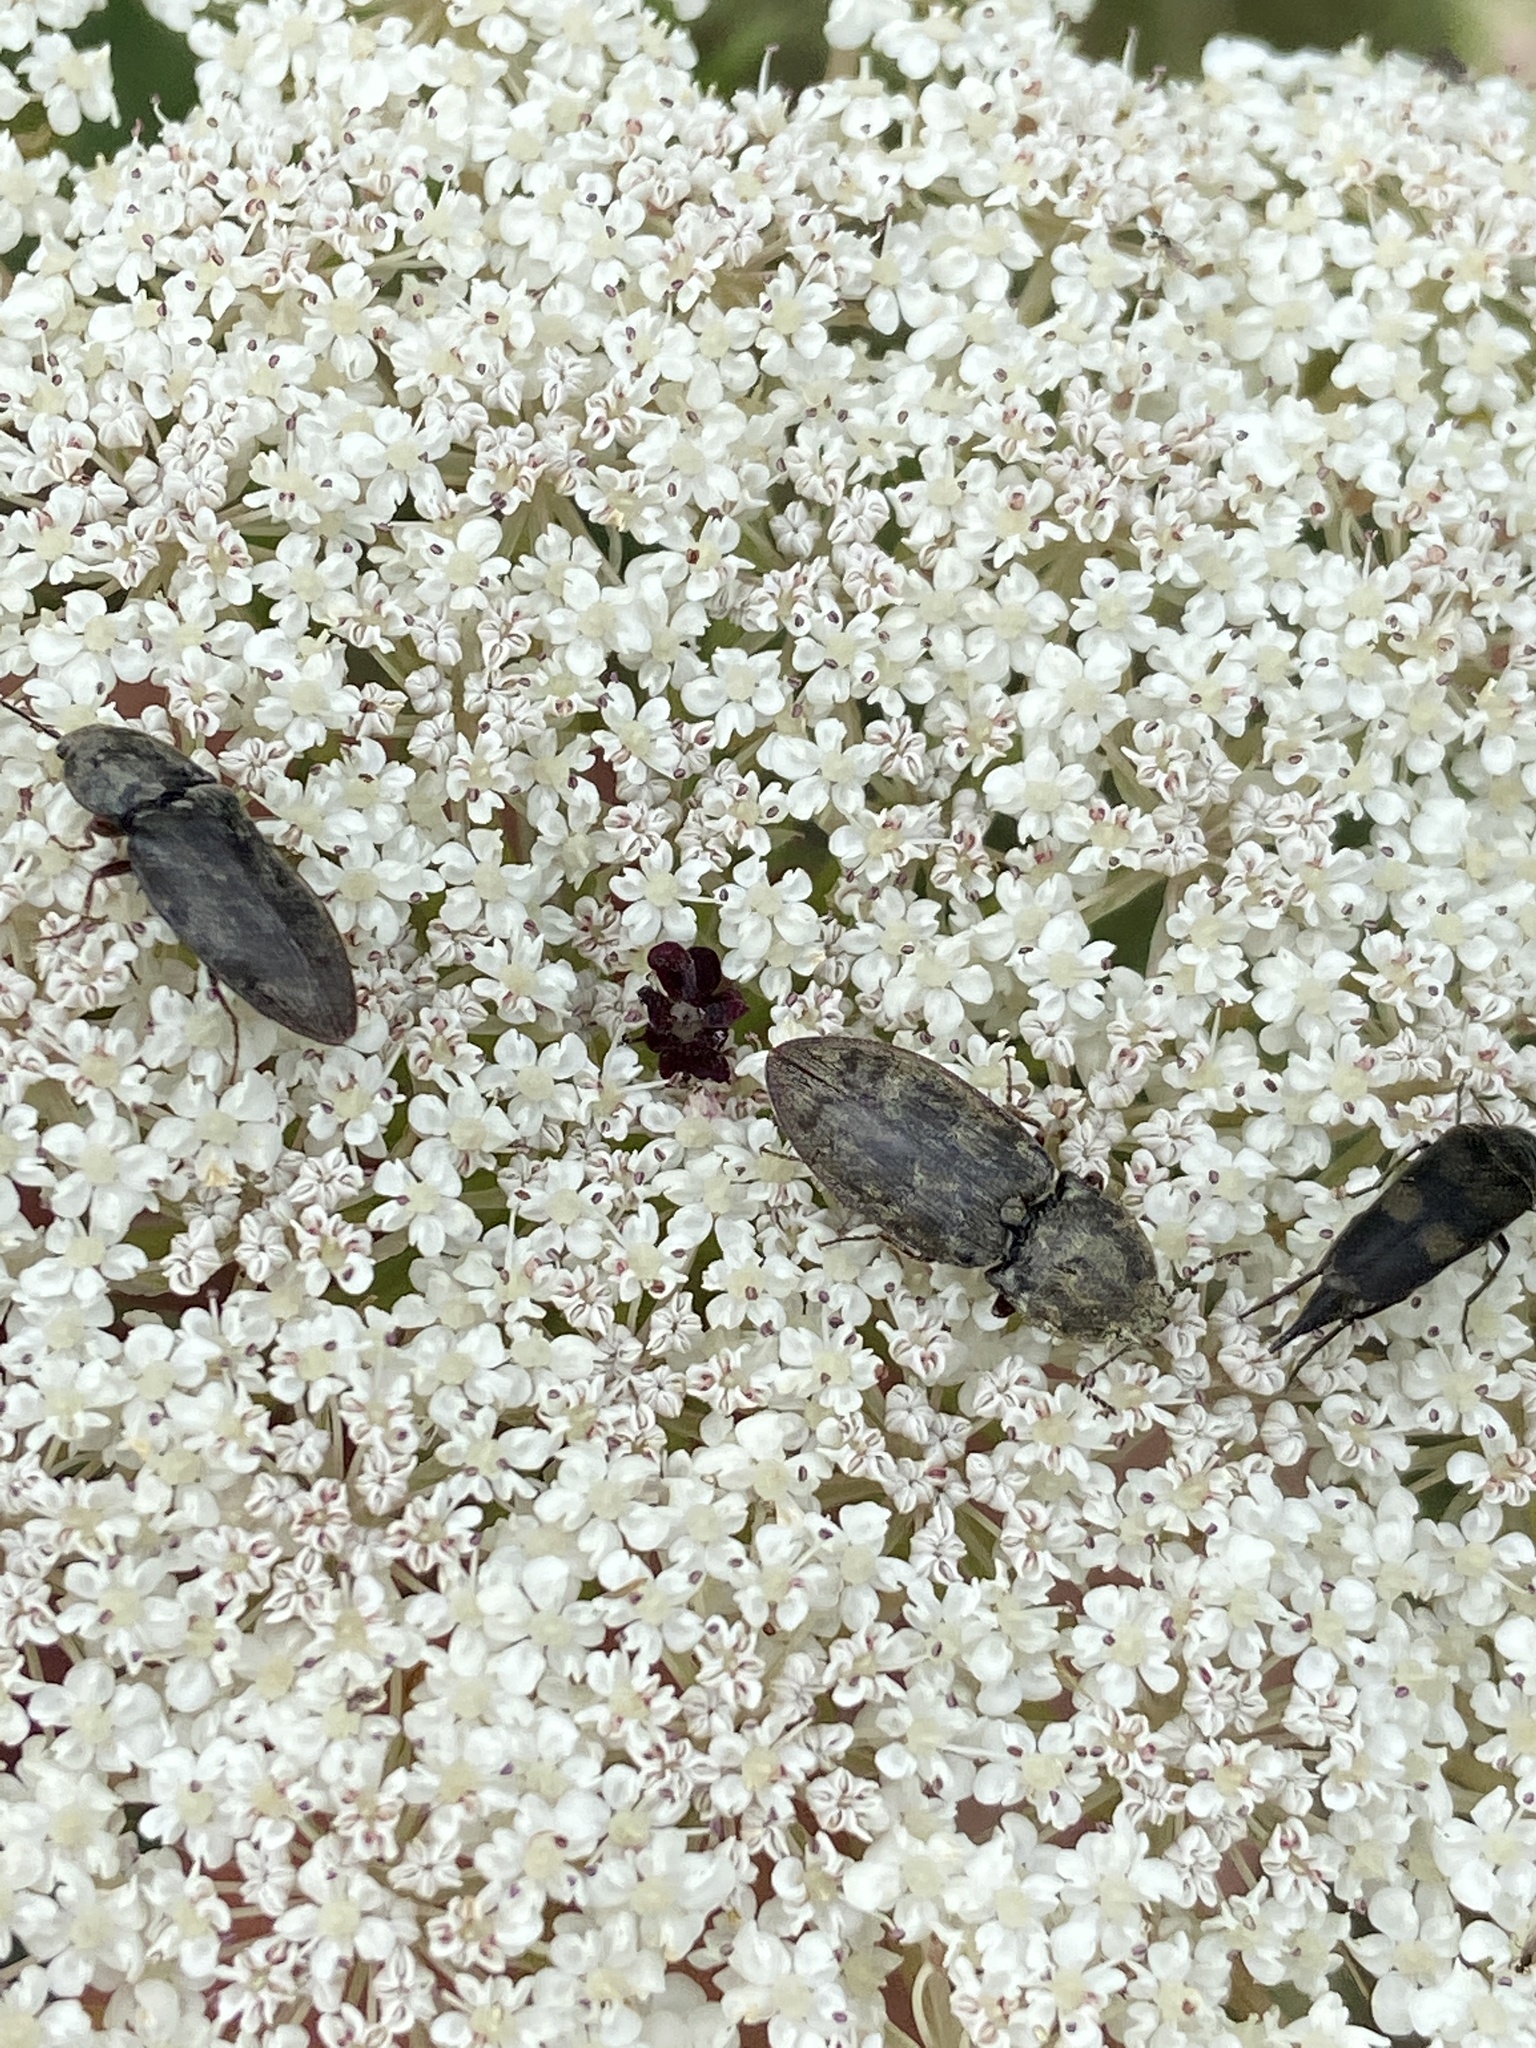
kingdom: Animalia
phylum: Arthropoda
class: Insecta
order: Coleoptera
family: Elateridae
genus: Prosternon
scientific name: Prosternon tessellatum
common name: Chequered click beetle
